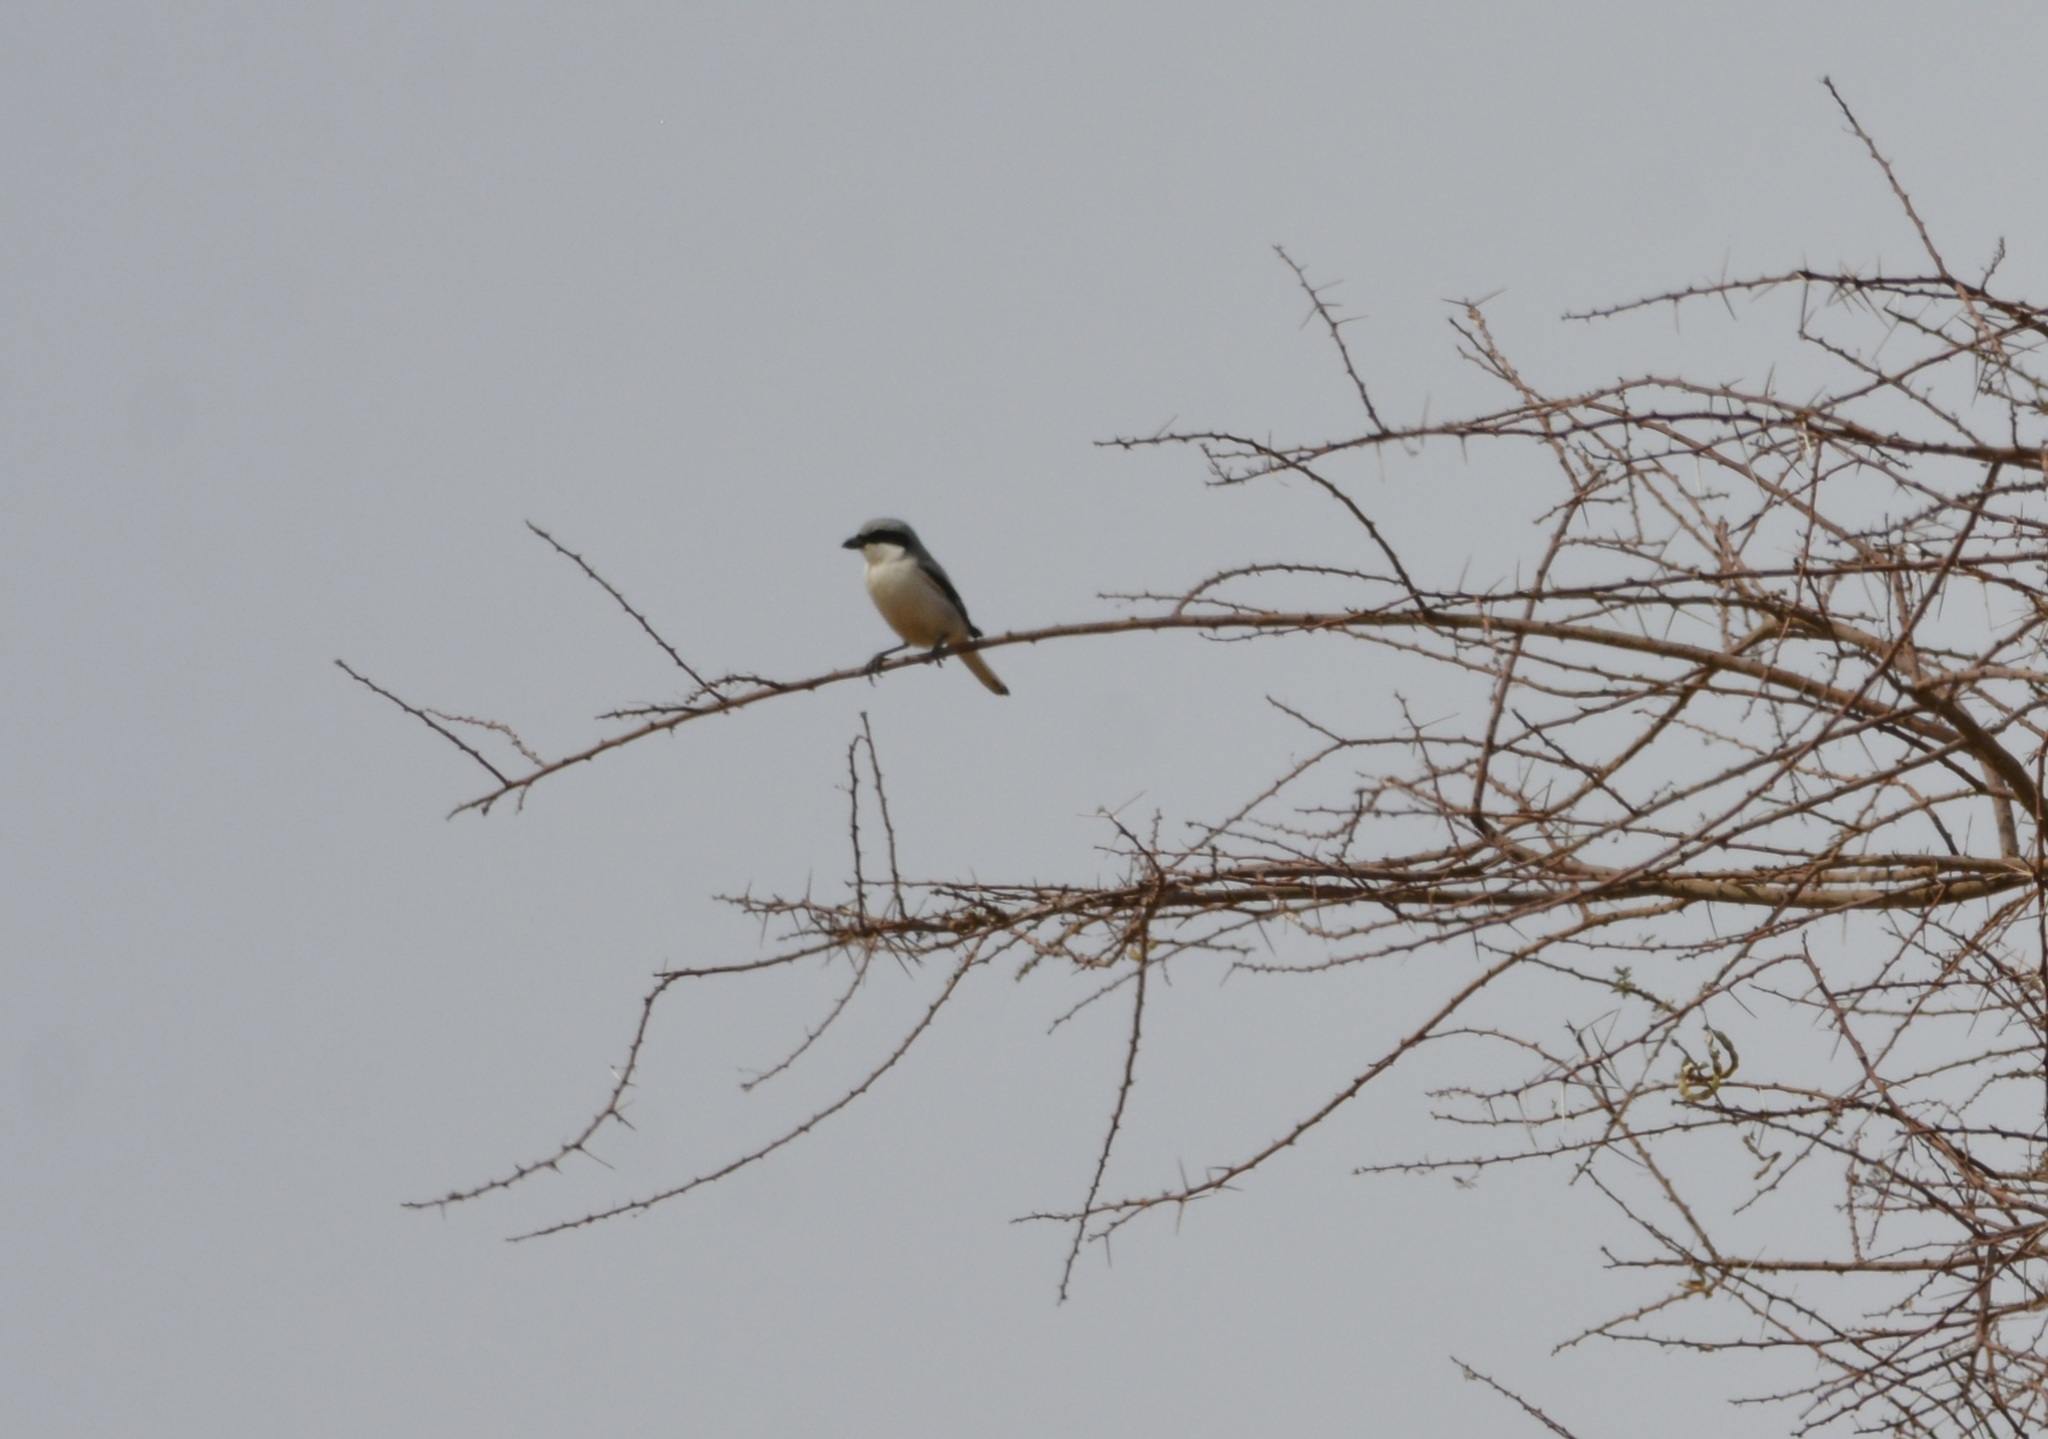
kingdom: Animalia
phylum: Chordata
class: Aves
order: Passeriformes
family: Laniidae
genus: Lanius
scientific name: Lanius excubitor
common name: Great grey shrike
